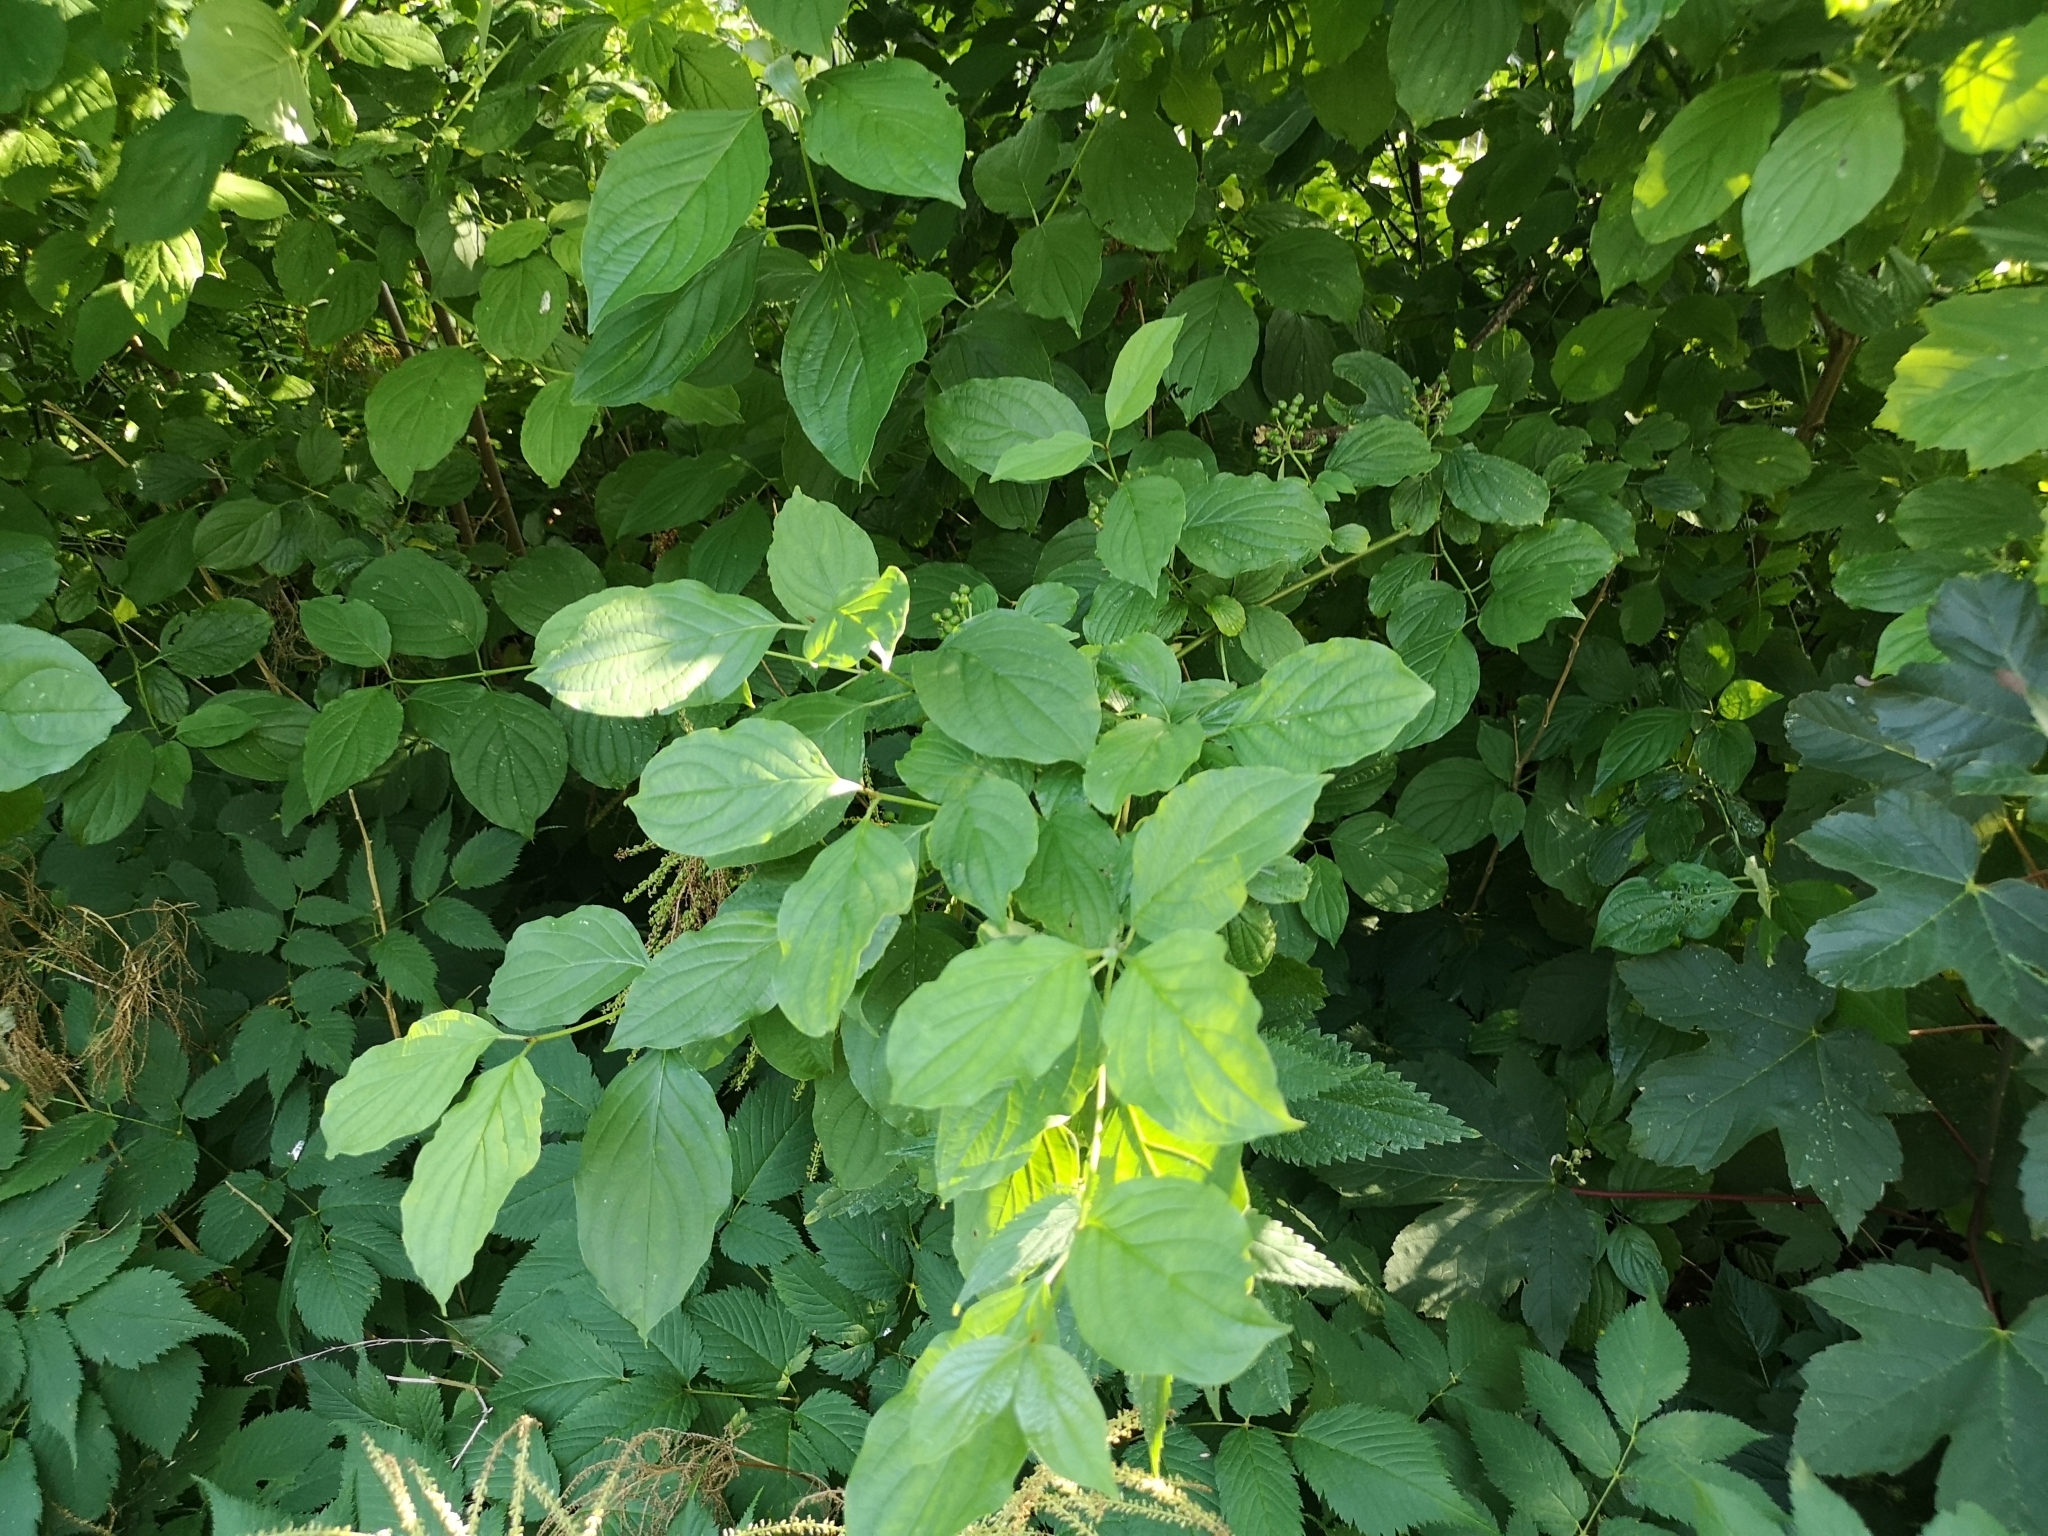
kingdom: Plantae
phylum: Tracheophyta
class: Magnoliopsida
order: Cornales
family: Cornaceae
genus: Cornus
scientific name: Cornus sanguinea
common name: Dogwood
